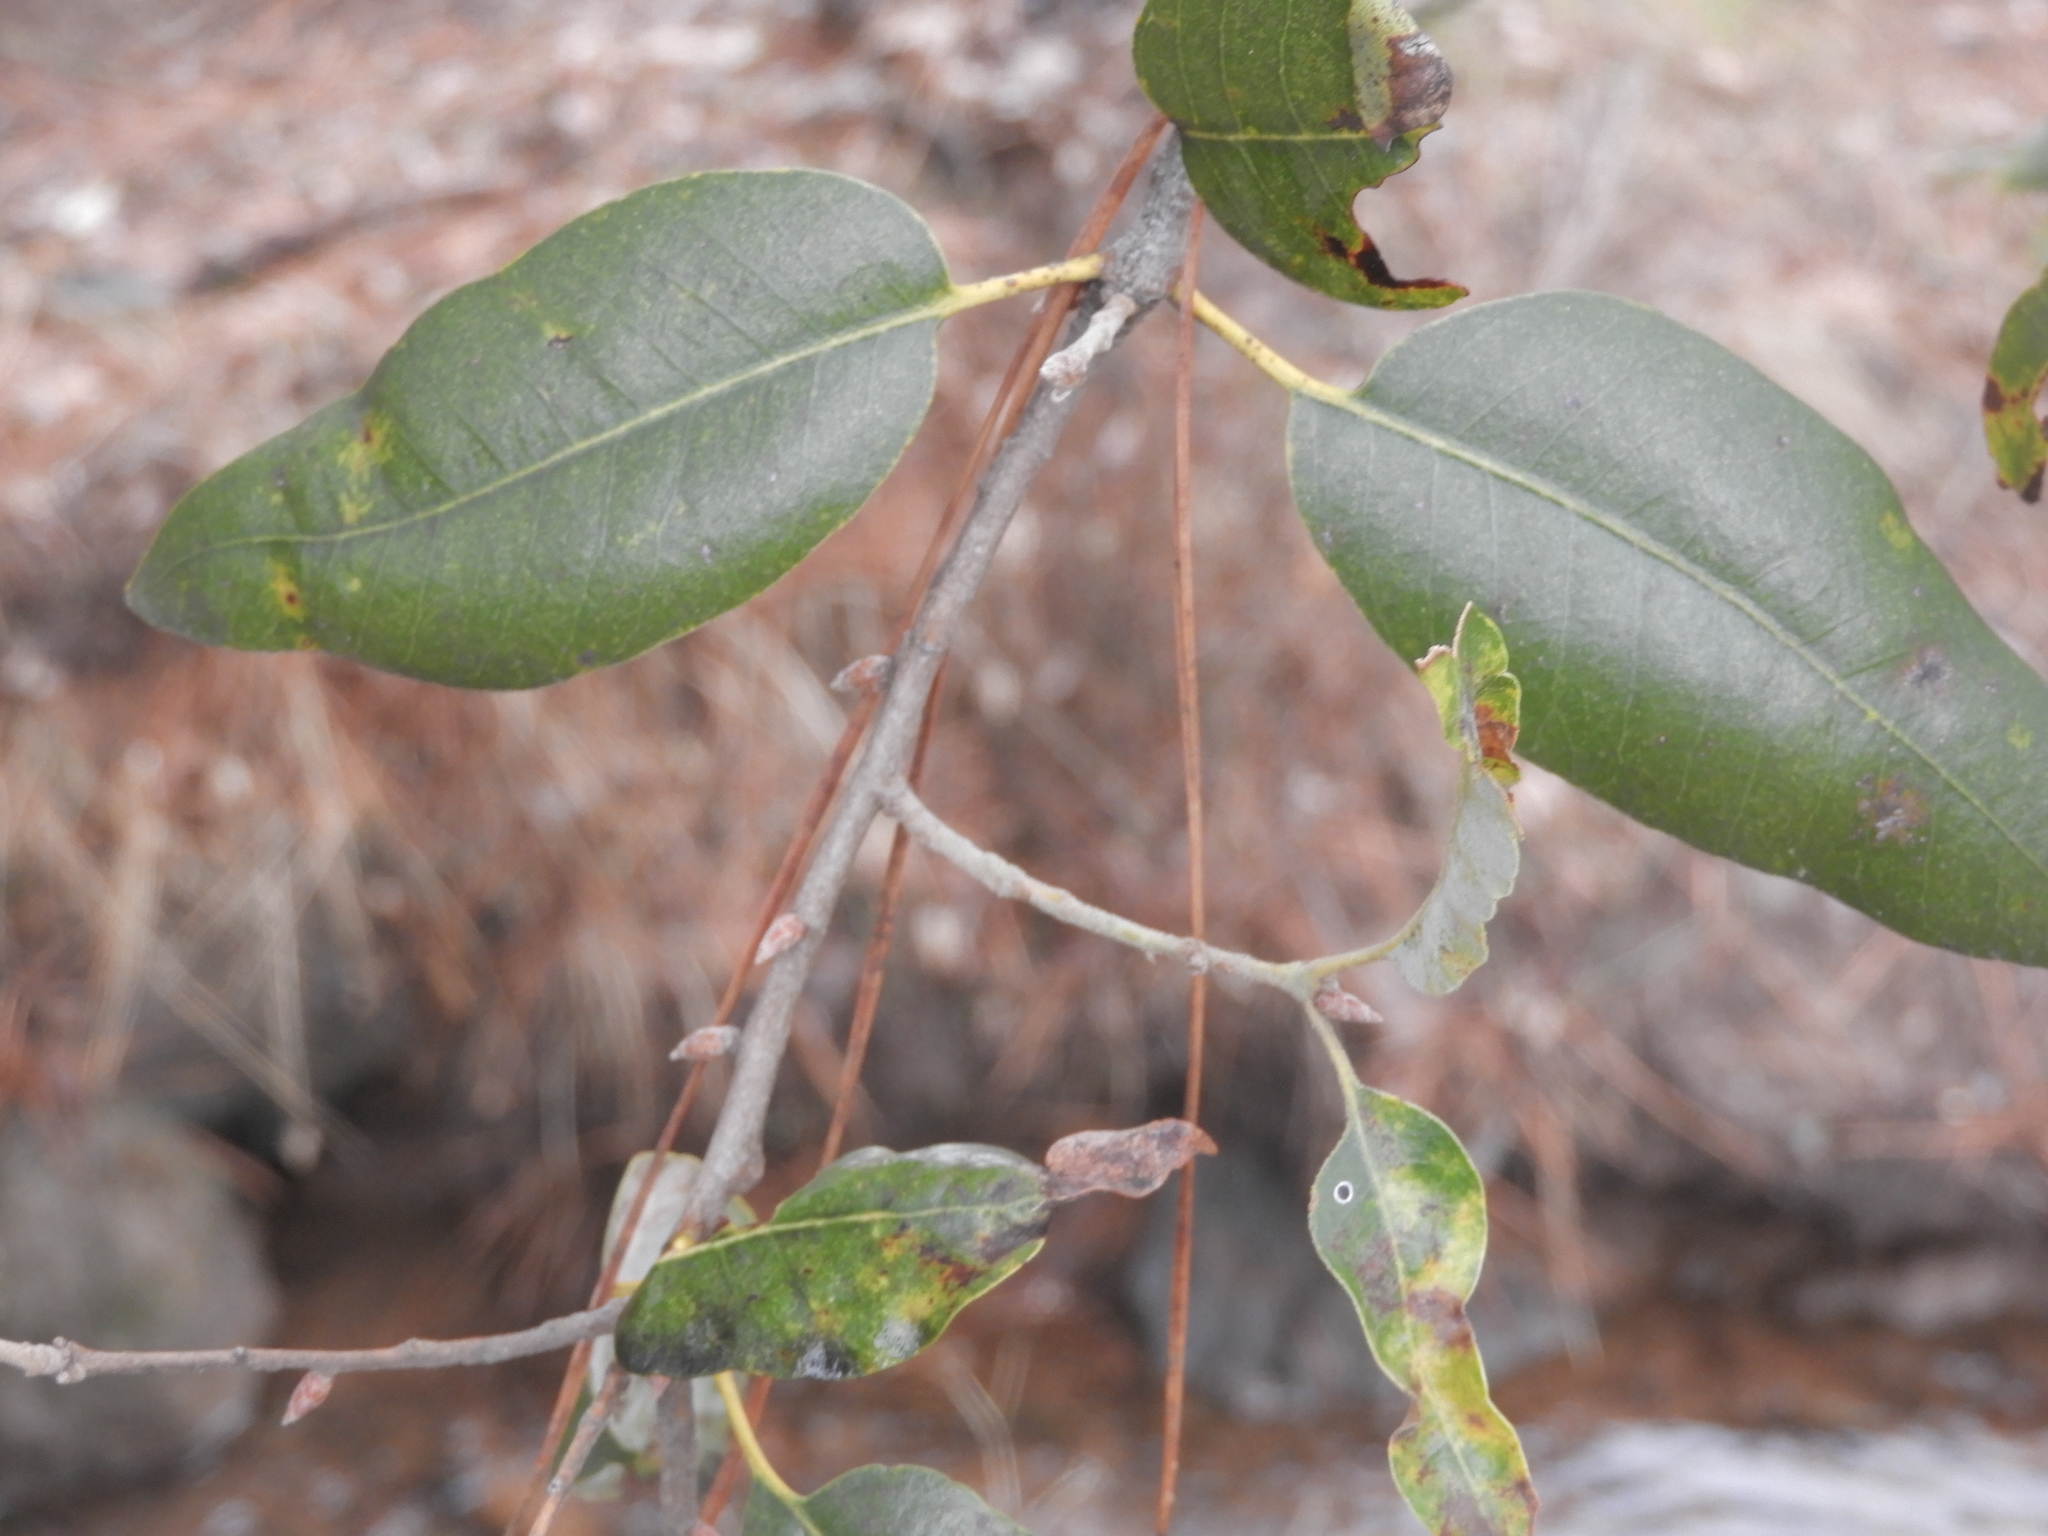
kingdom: Plantae
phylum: Tracheophyta
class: Magnoliopsida
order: Fagales
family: Fagaceae
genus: Quercus
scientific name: Quercus chrysolepis
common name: Canyon live oak
